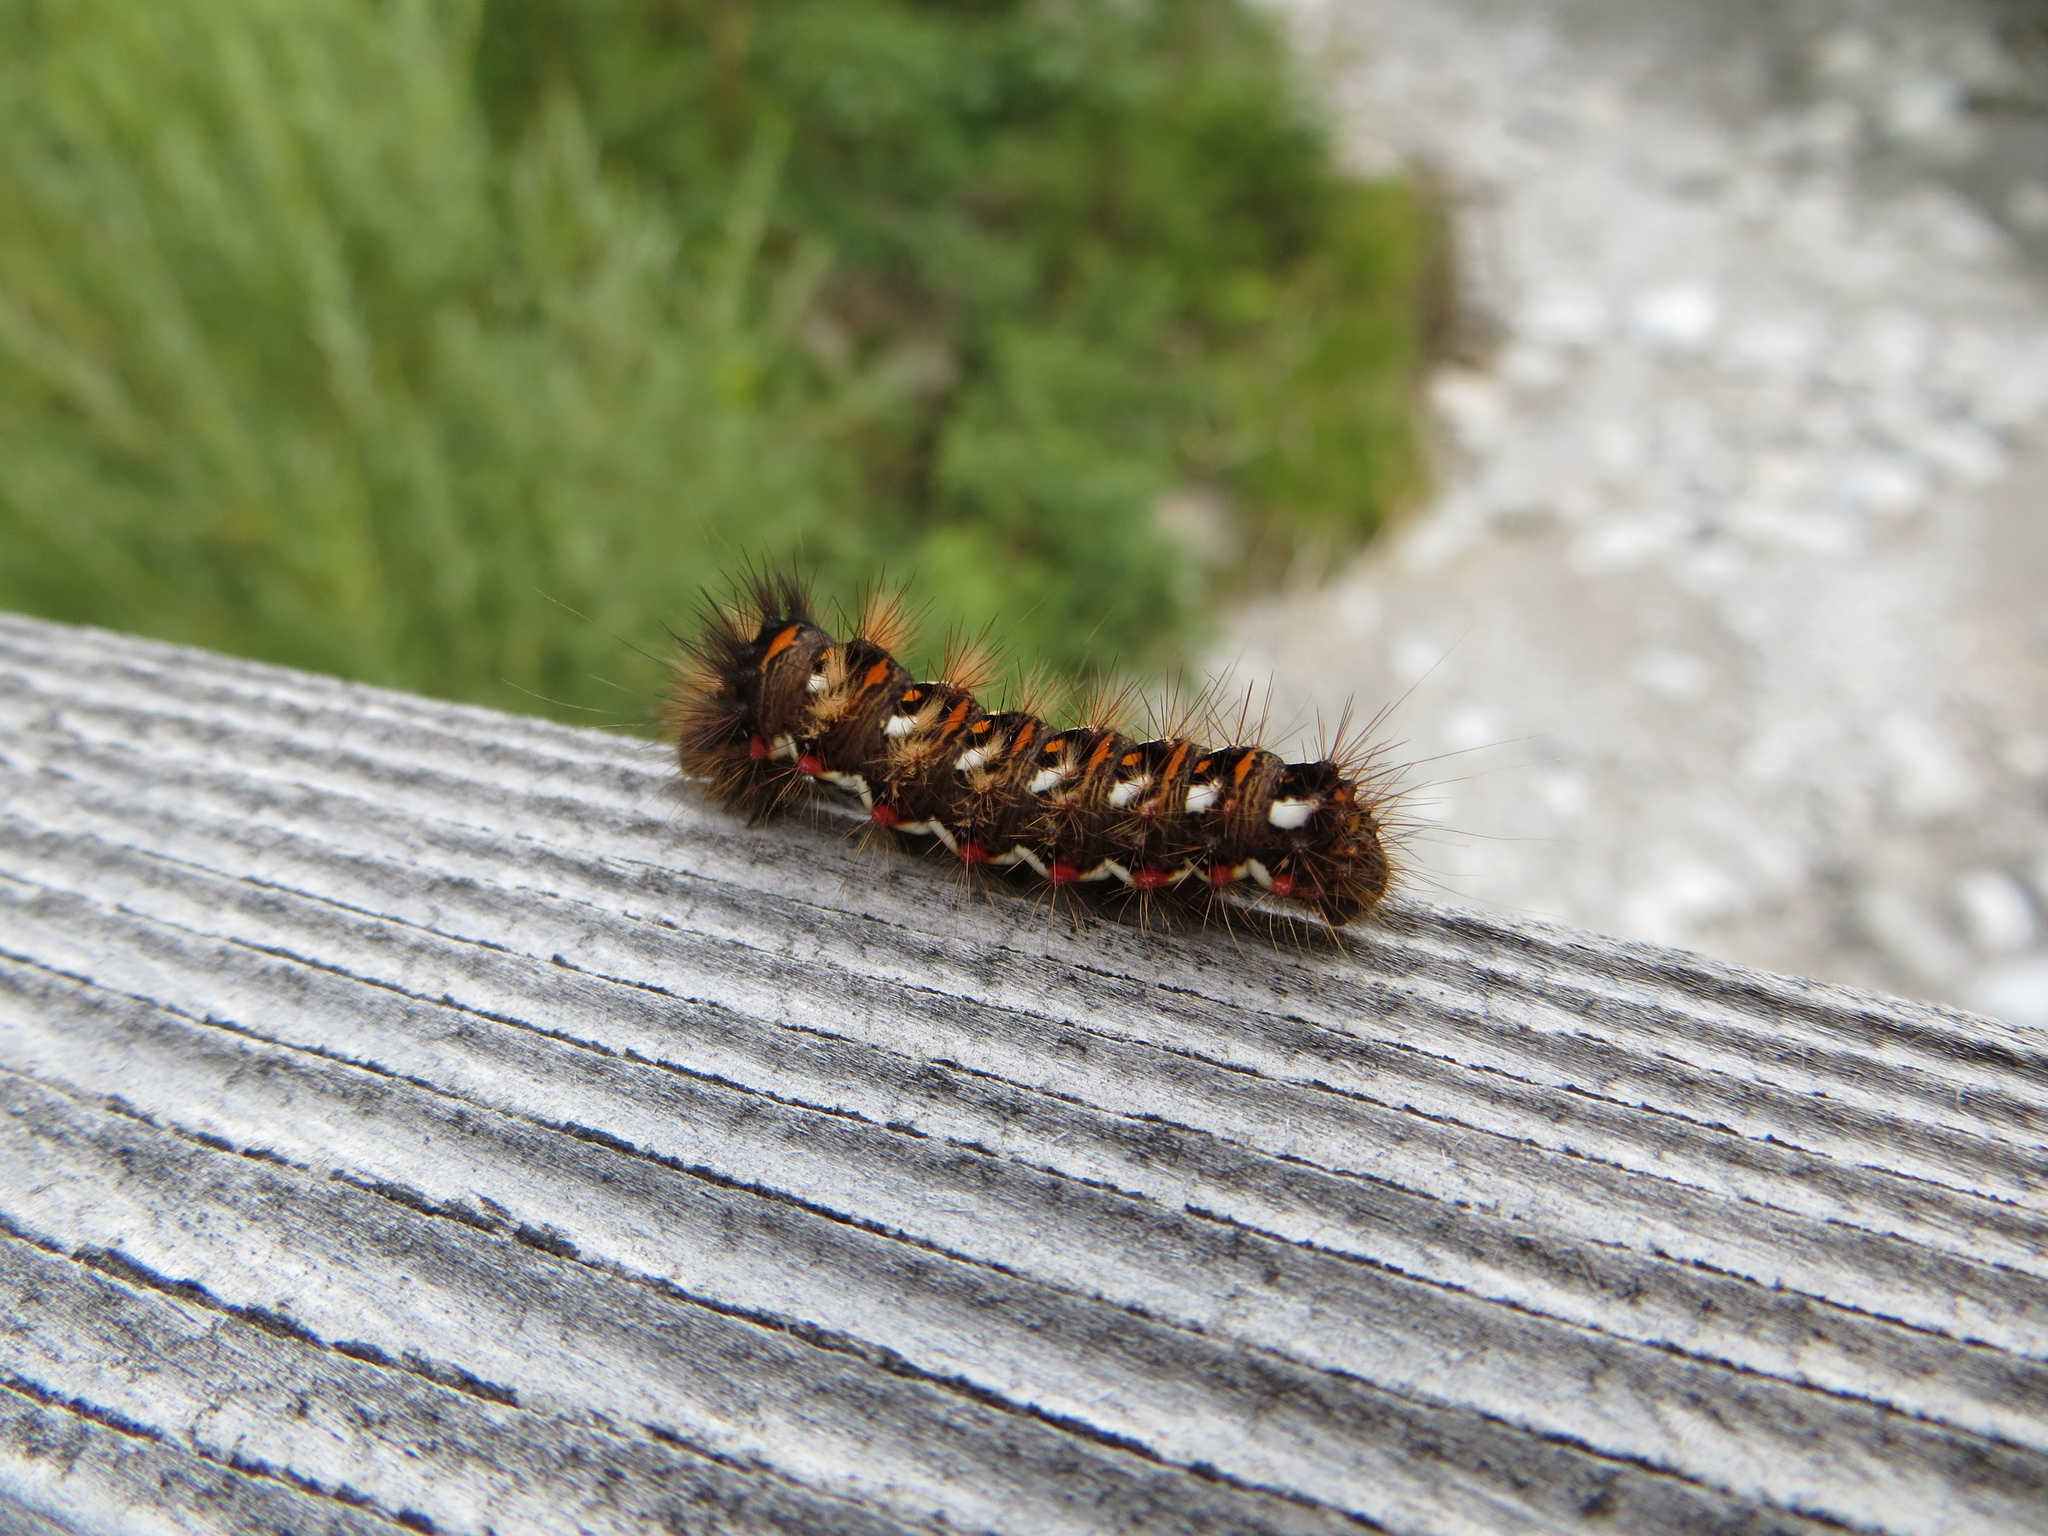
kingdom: Animalia
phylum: Arthropoda
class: Insecta
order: Lepidoptera
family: Noctuidae
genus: Acronicta
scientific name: Acronicta rumicis
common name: Knot grass
